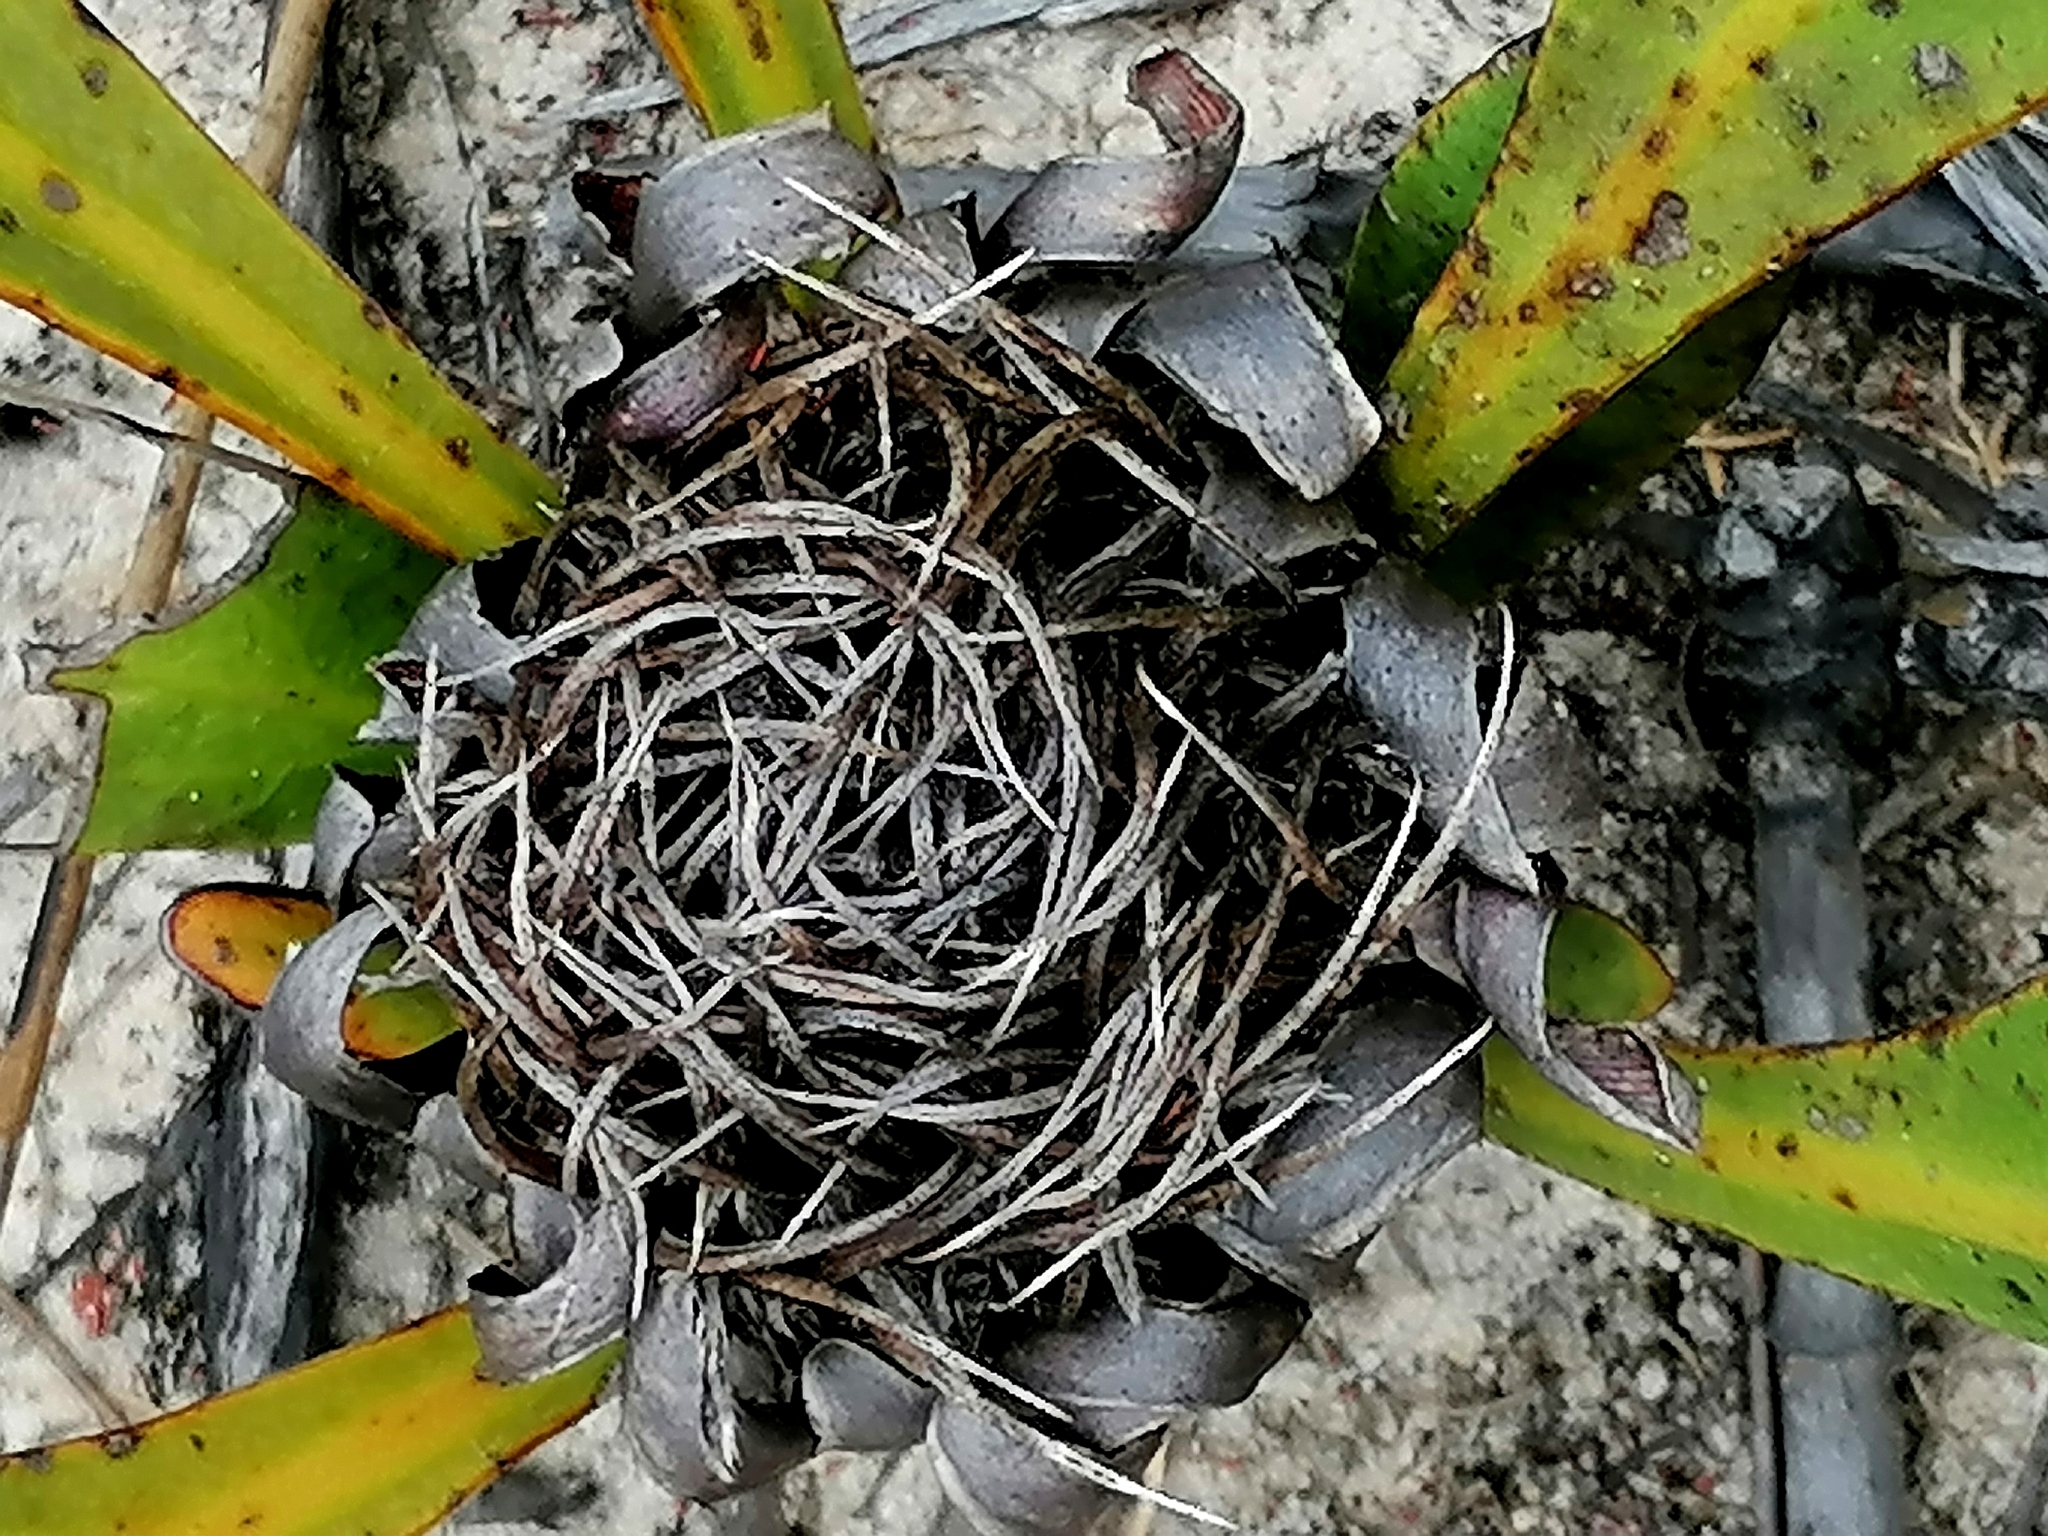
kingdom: Plantae
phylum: Tracheophyta
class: Magnoliopsida
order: Proteales
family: Proteaceae
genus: Protea
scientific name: Protea acaulos
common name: Common ground sugarbush
